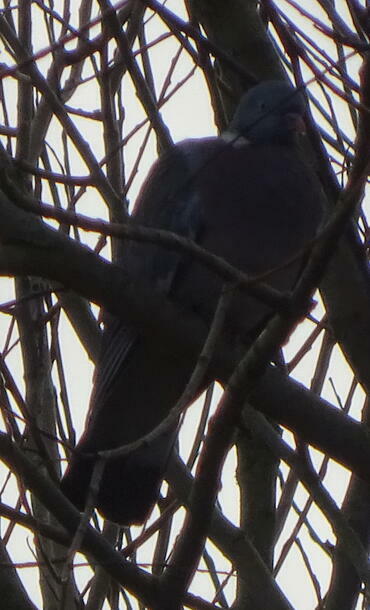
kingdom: Animalia
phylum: Chordata
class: Aves
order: Columbiformes
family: Columbidae
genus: Columba
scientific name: Columba palumbus
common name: Common wood pigeon
